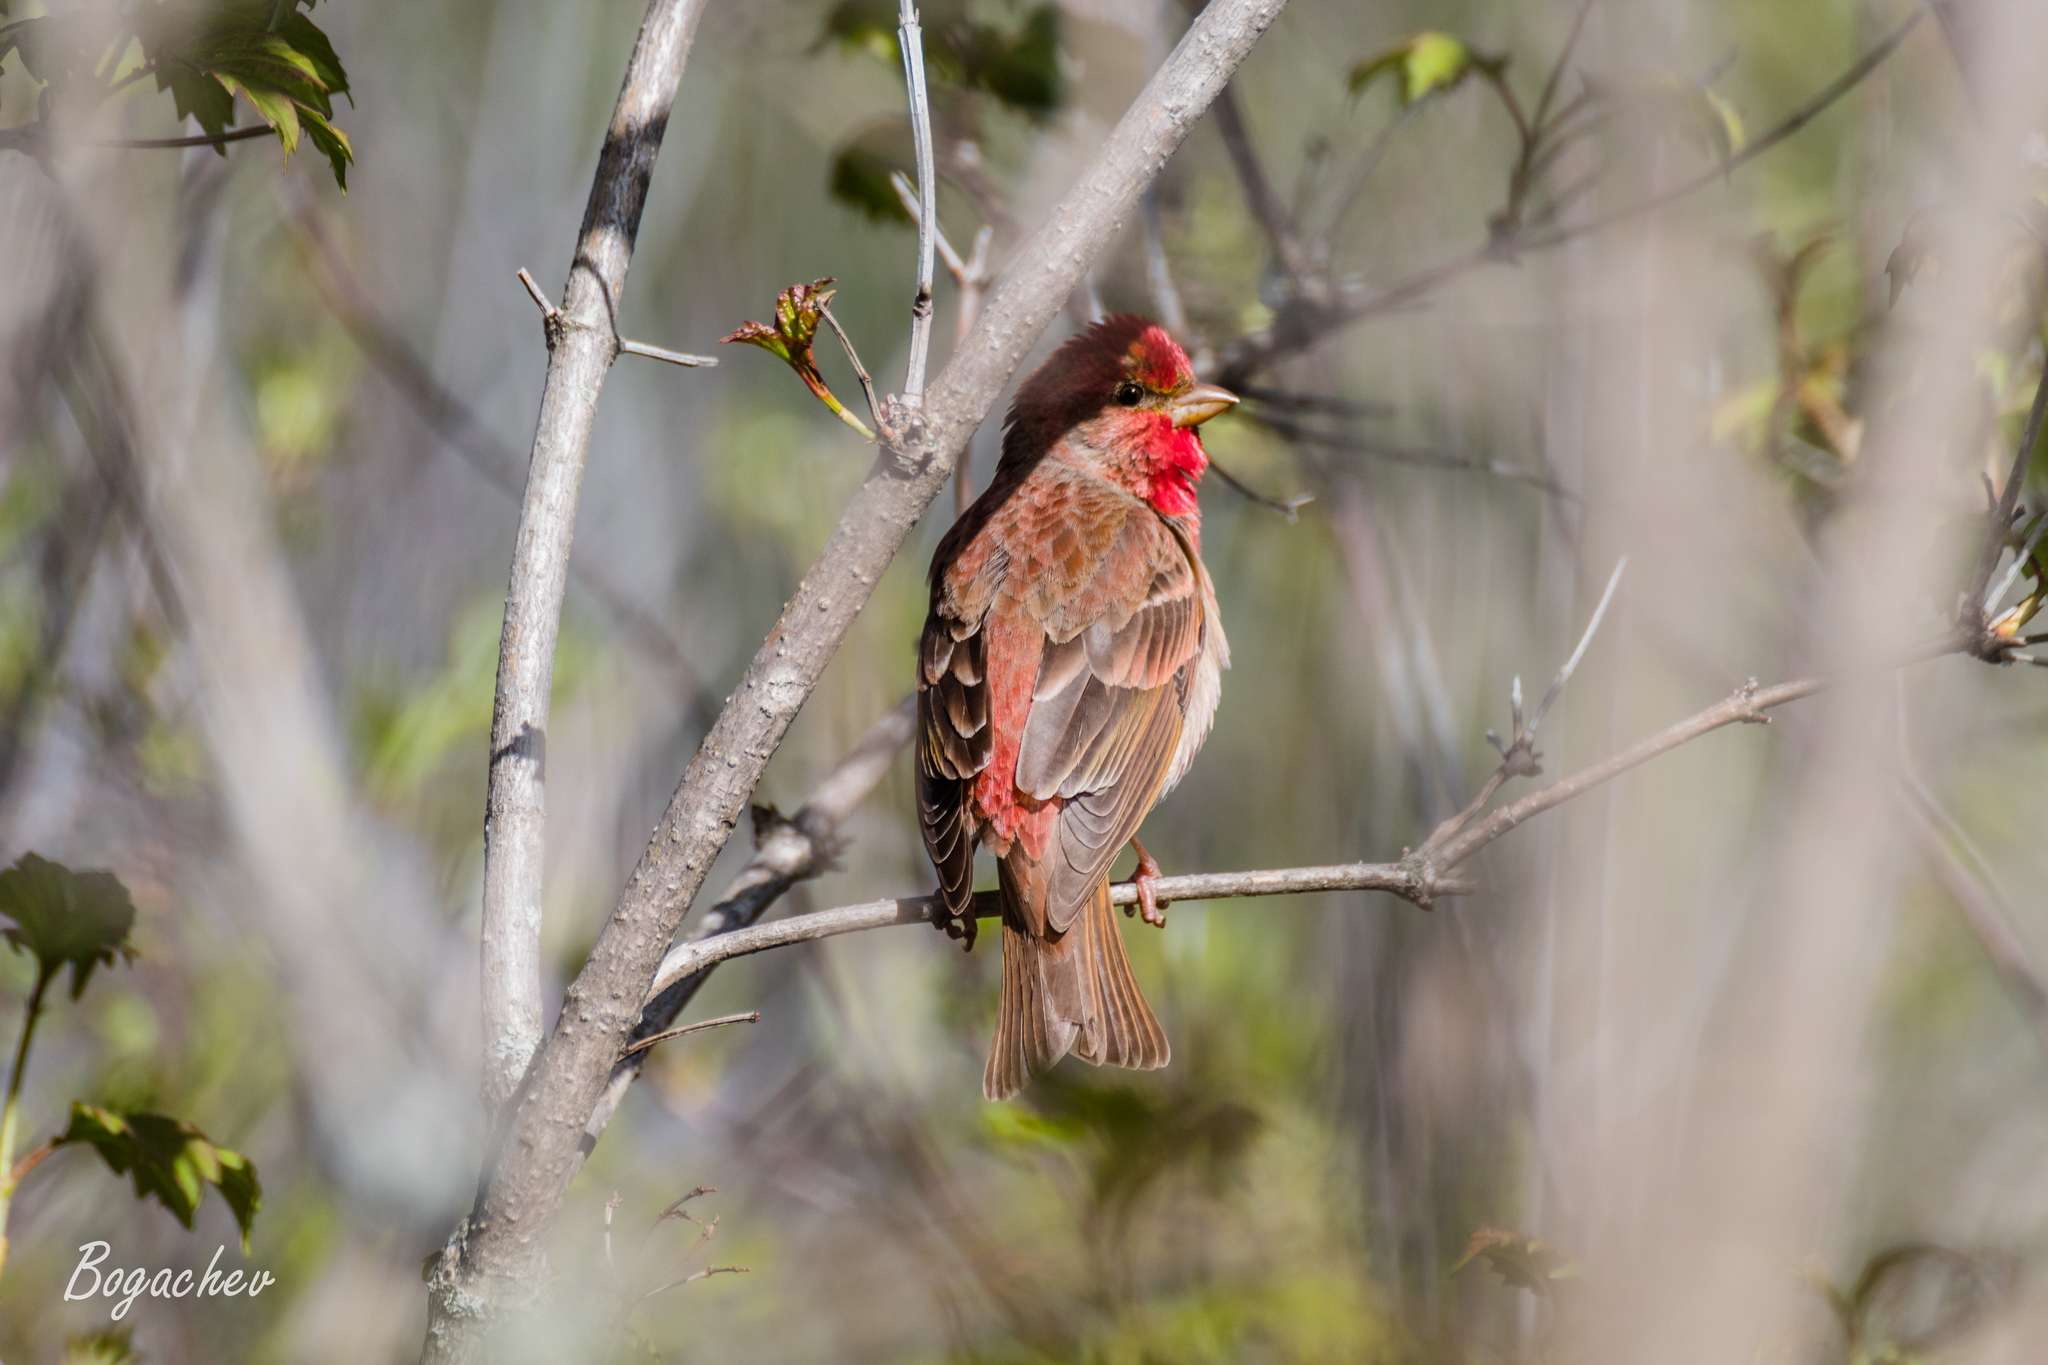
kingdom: Animalia
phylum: Chordata
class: Aves
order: Passeriformes
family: Fringillidae
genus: Carpodacus
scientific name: Carpodacus erythrinus
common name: Common rosefinch
